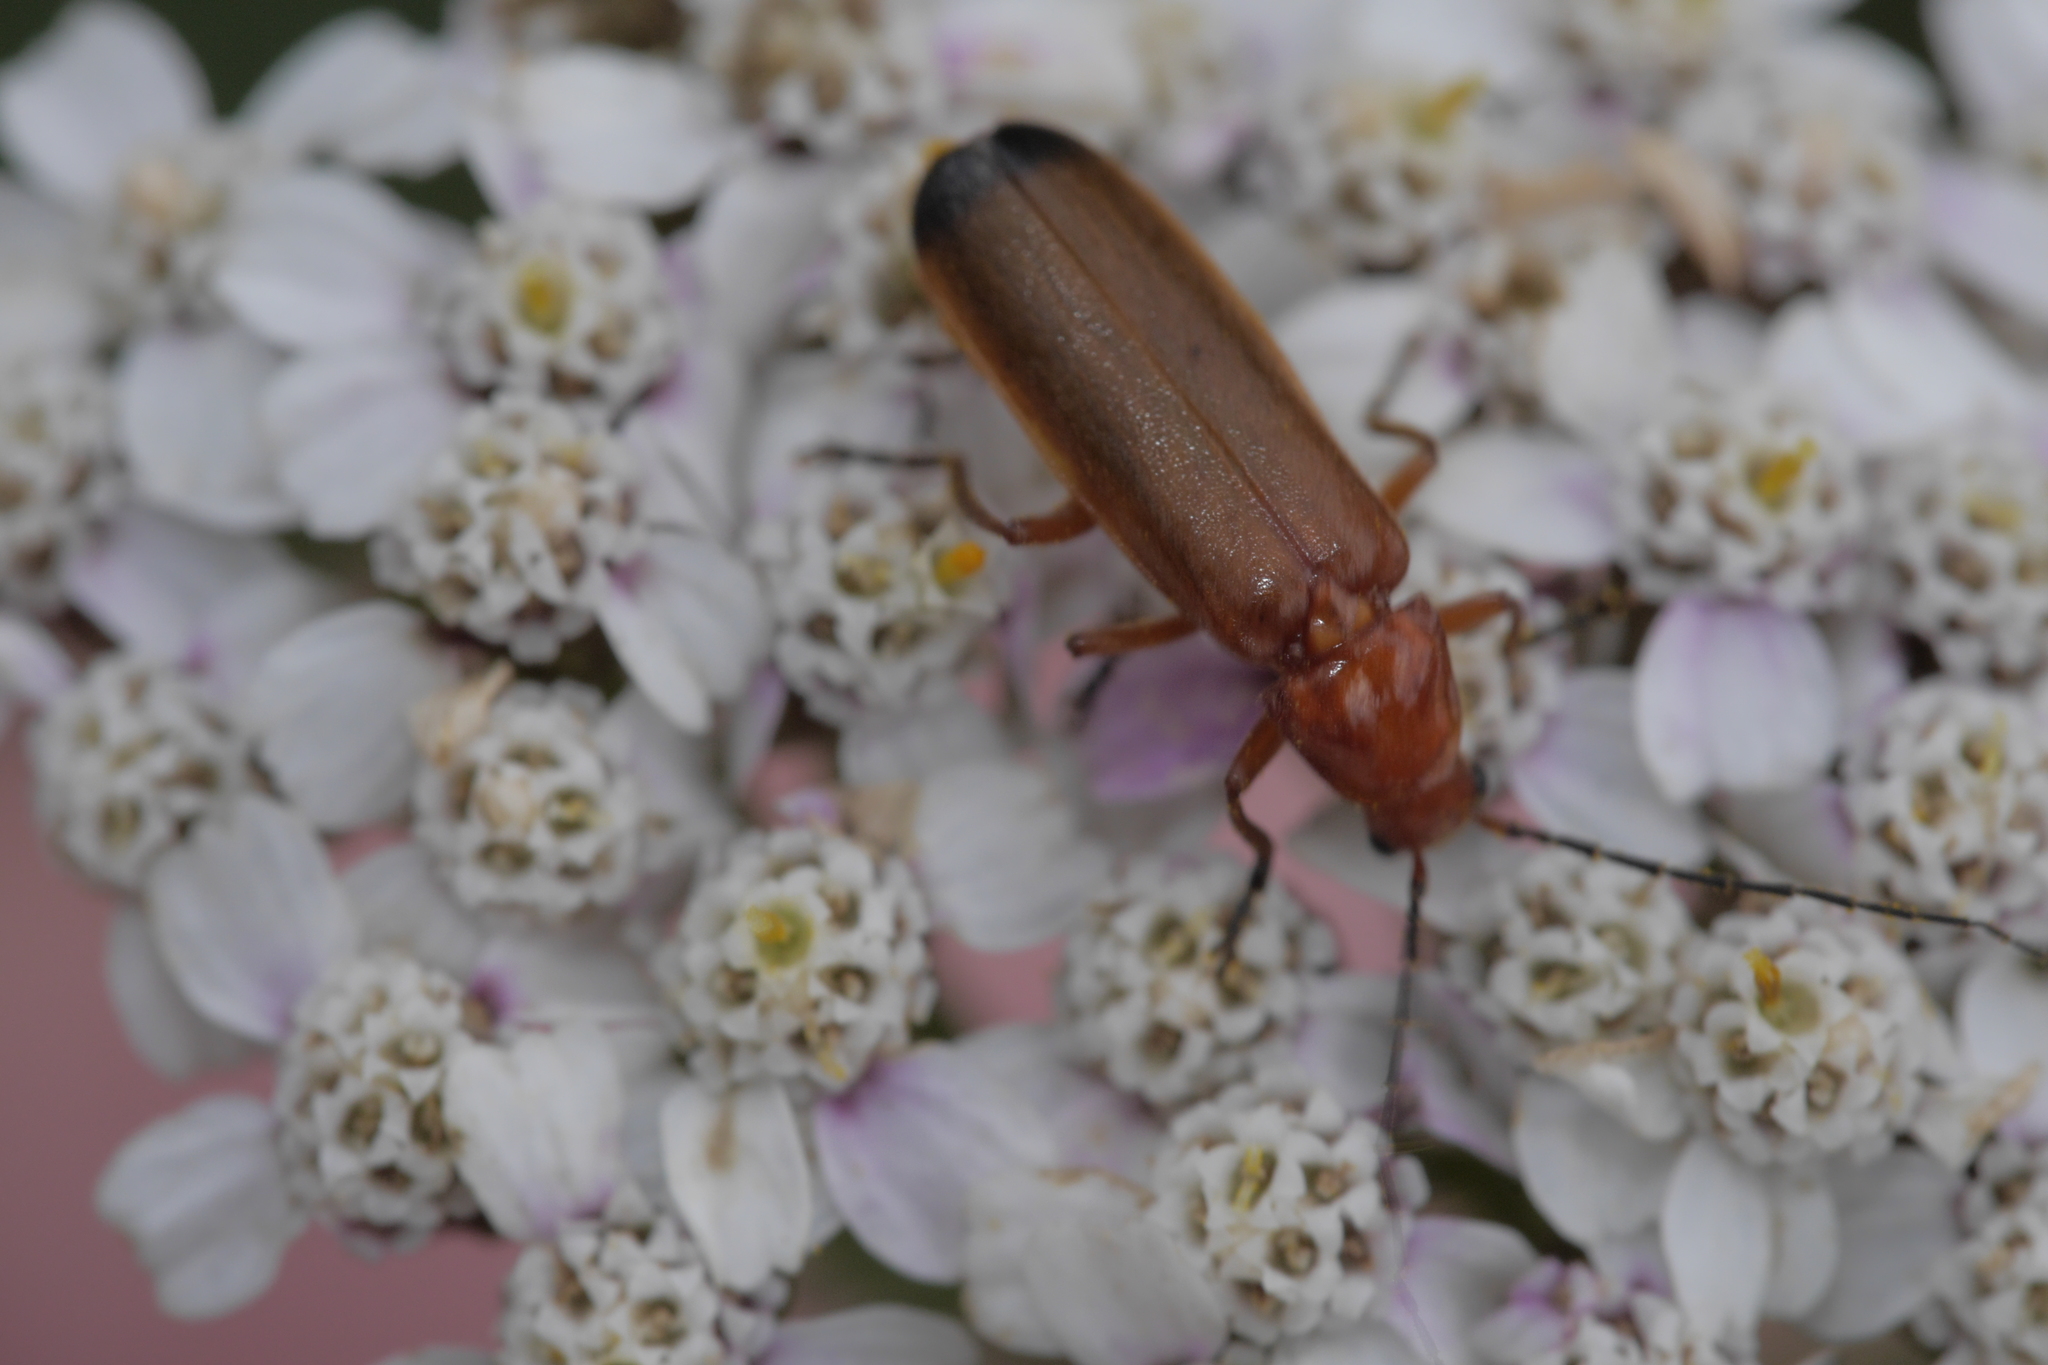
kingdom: Animalia
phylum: Arthropoda
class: Insecta
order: Coleoptera
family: Cantharidae
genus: Rhagonycha
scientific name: Rhagonycha fulva
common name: Common red soldier beetle
